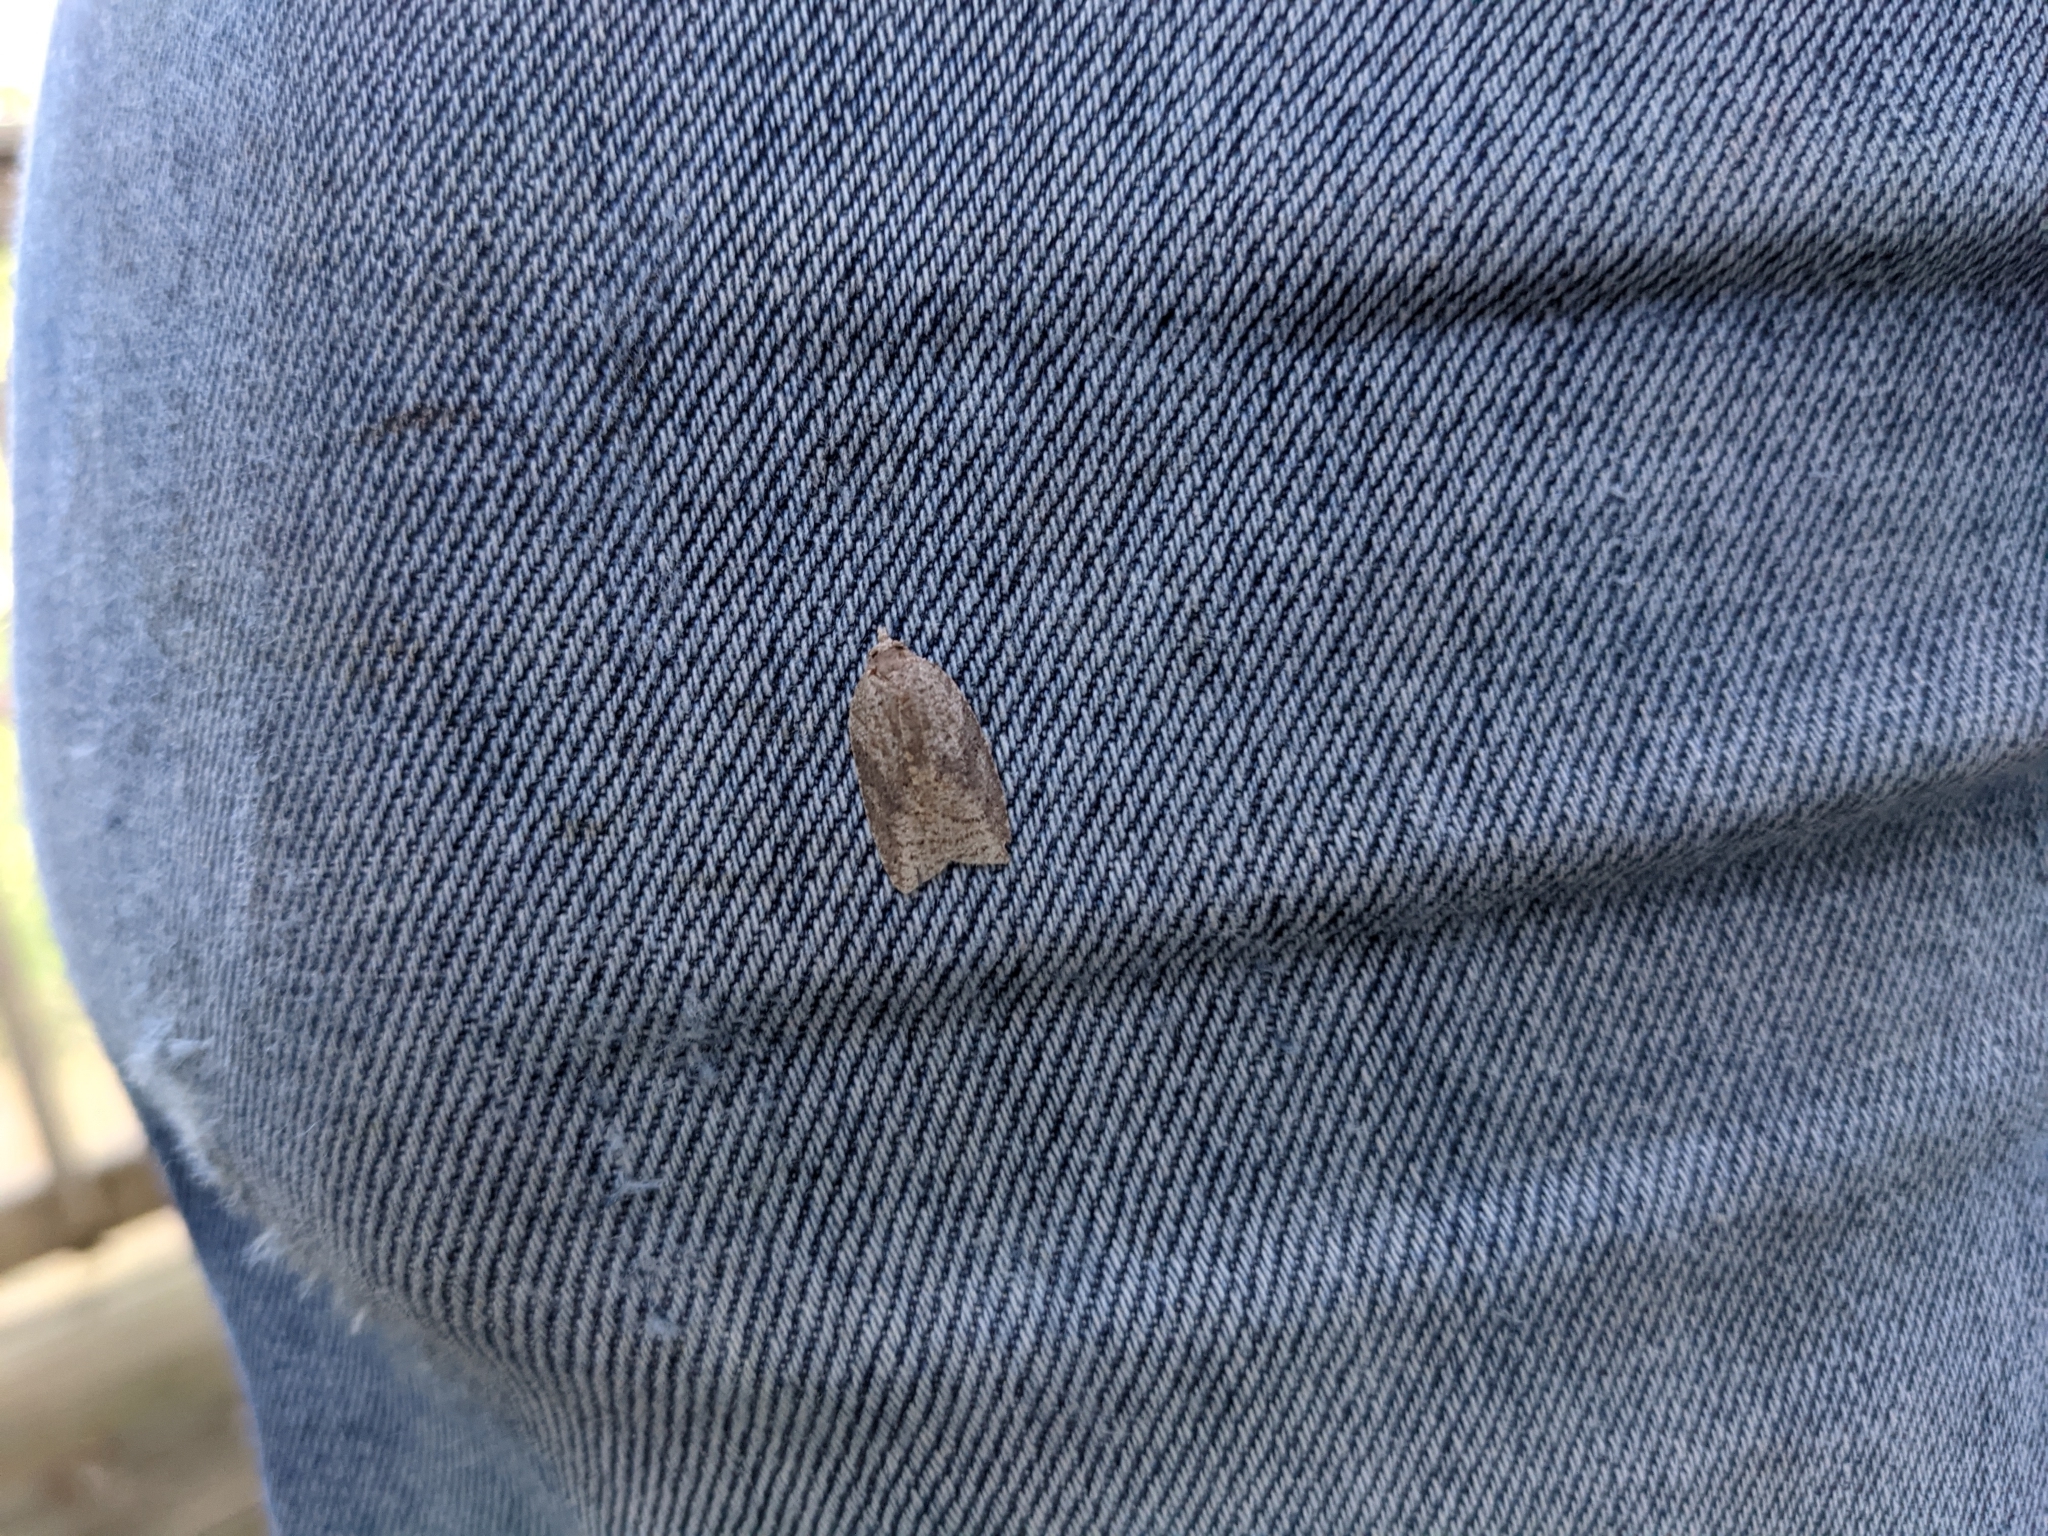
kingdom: Animalia
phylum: Arthropoda
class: Insecta
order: Lepidoptera
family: Tortricidae
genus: Amorbia
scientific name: Amorbia humerosana
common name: White-lined leafroller moth
